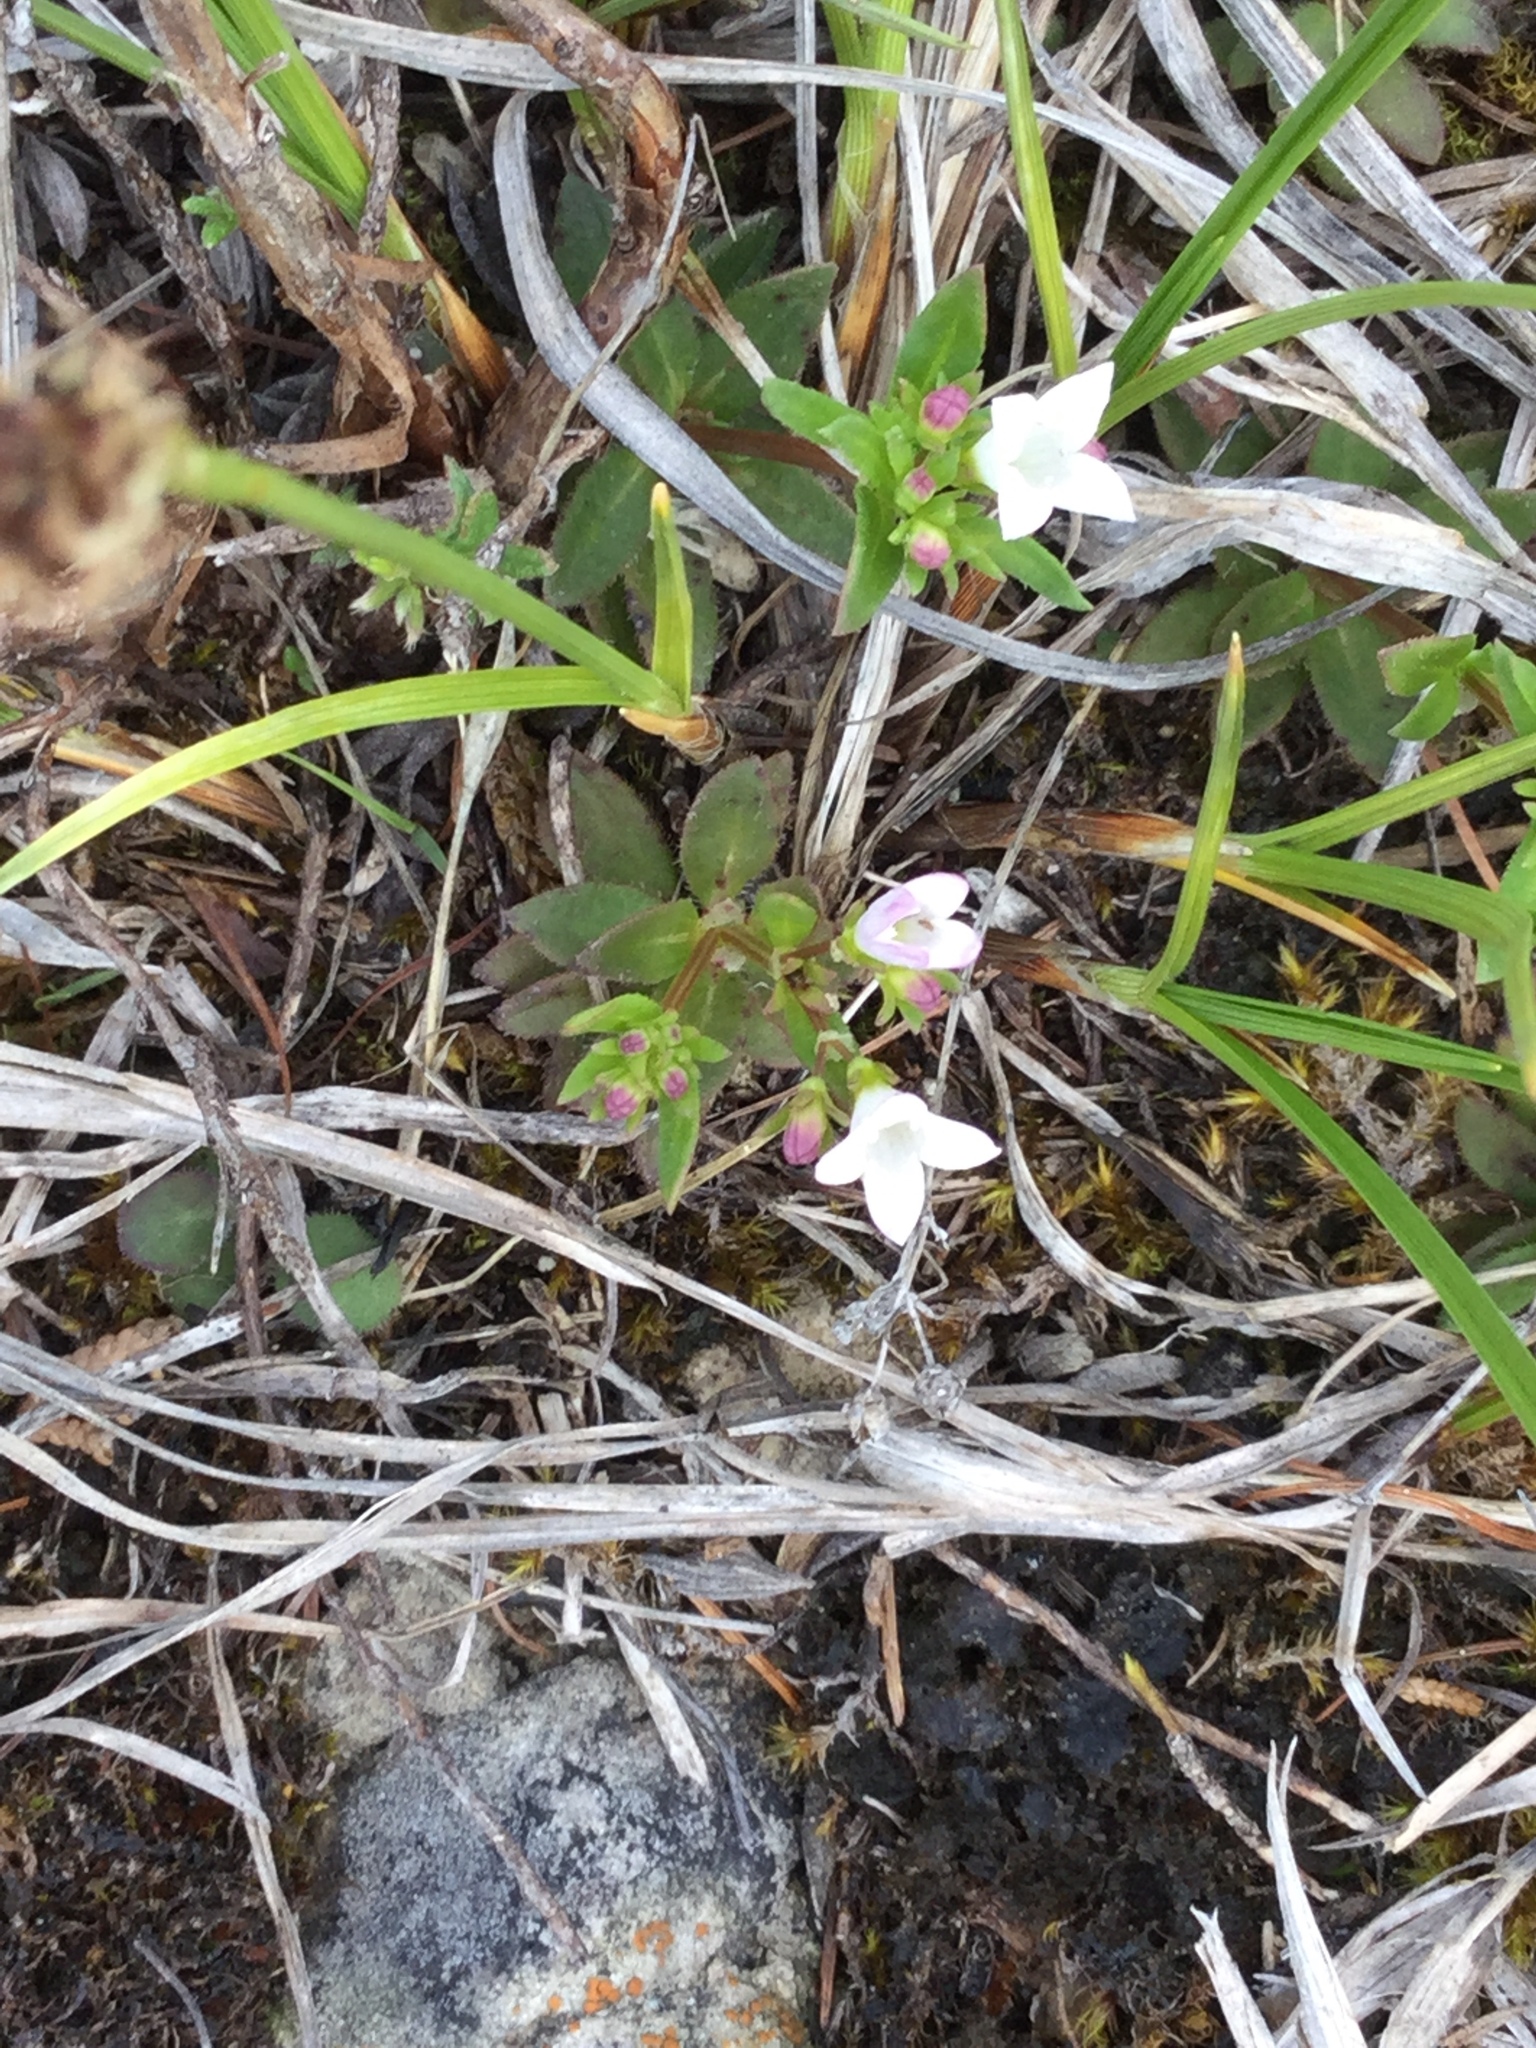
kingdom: Plantae
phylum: Tracheophyta
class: Magnoliopsida
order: Gentianales
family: Rubiaceae
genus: Houstonia
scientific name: Houstonia canadensis
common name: Fringed houstonia
